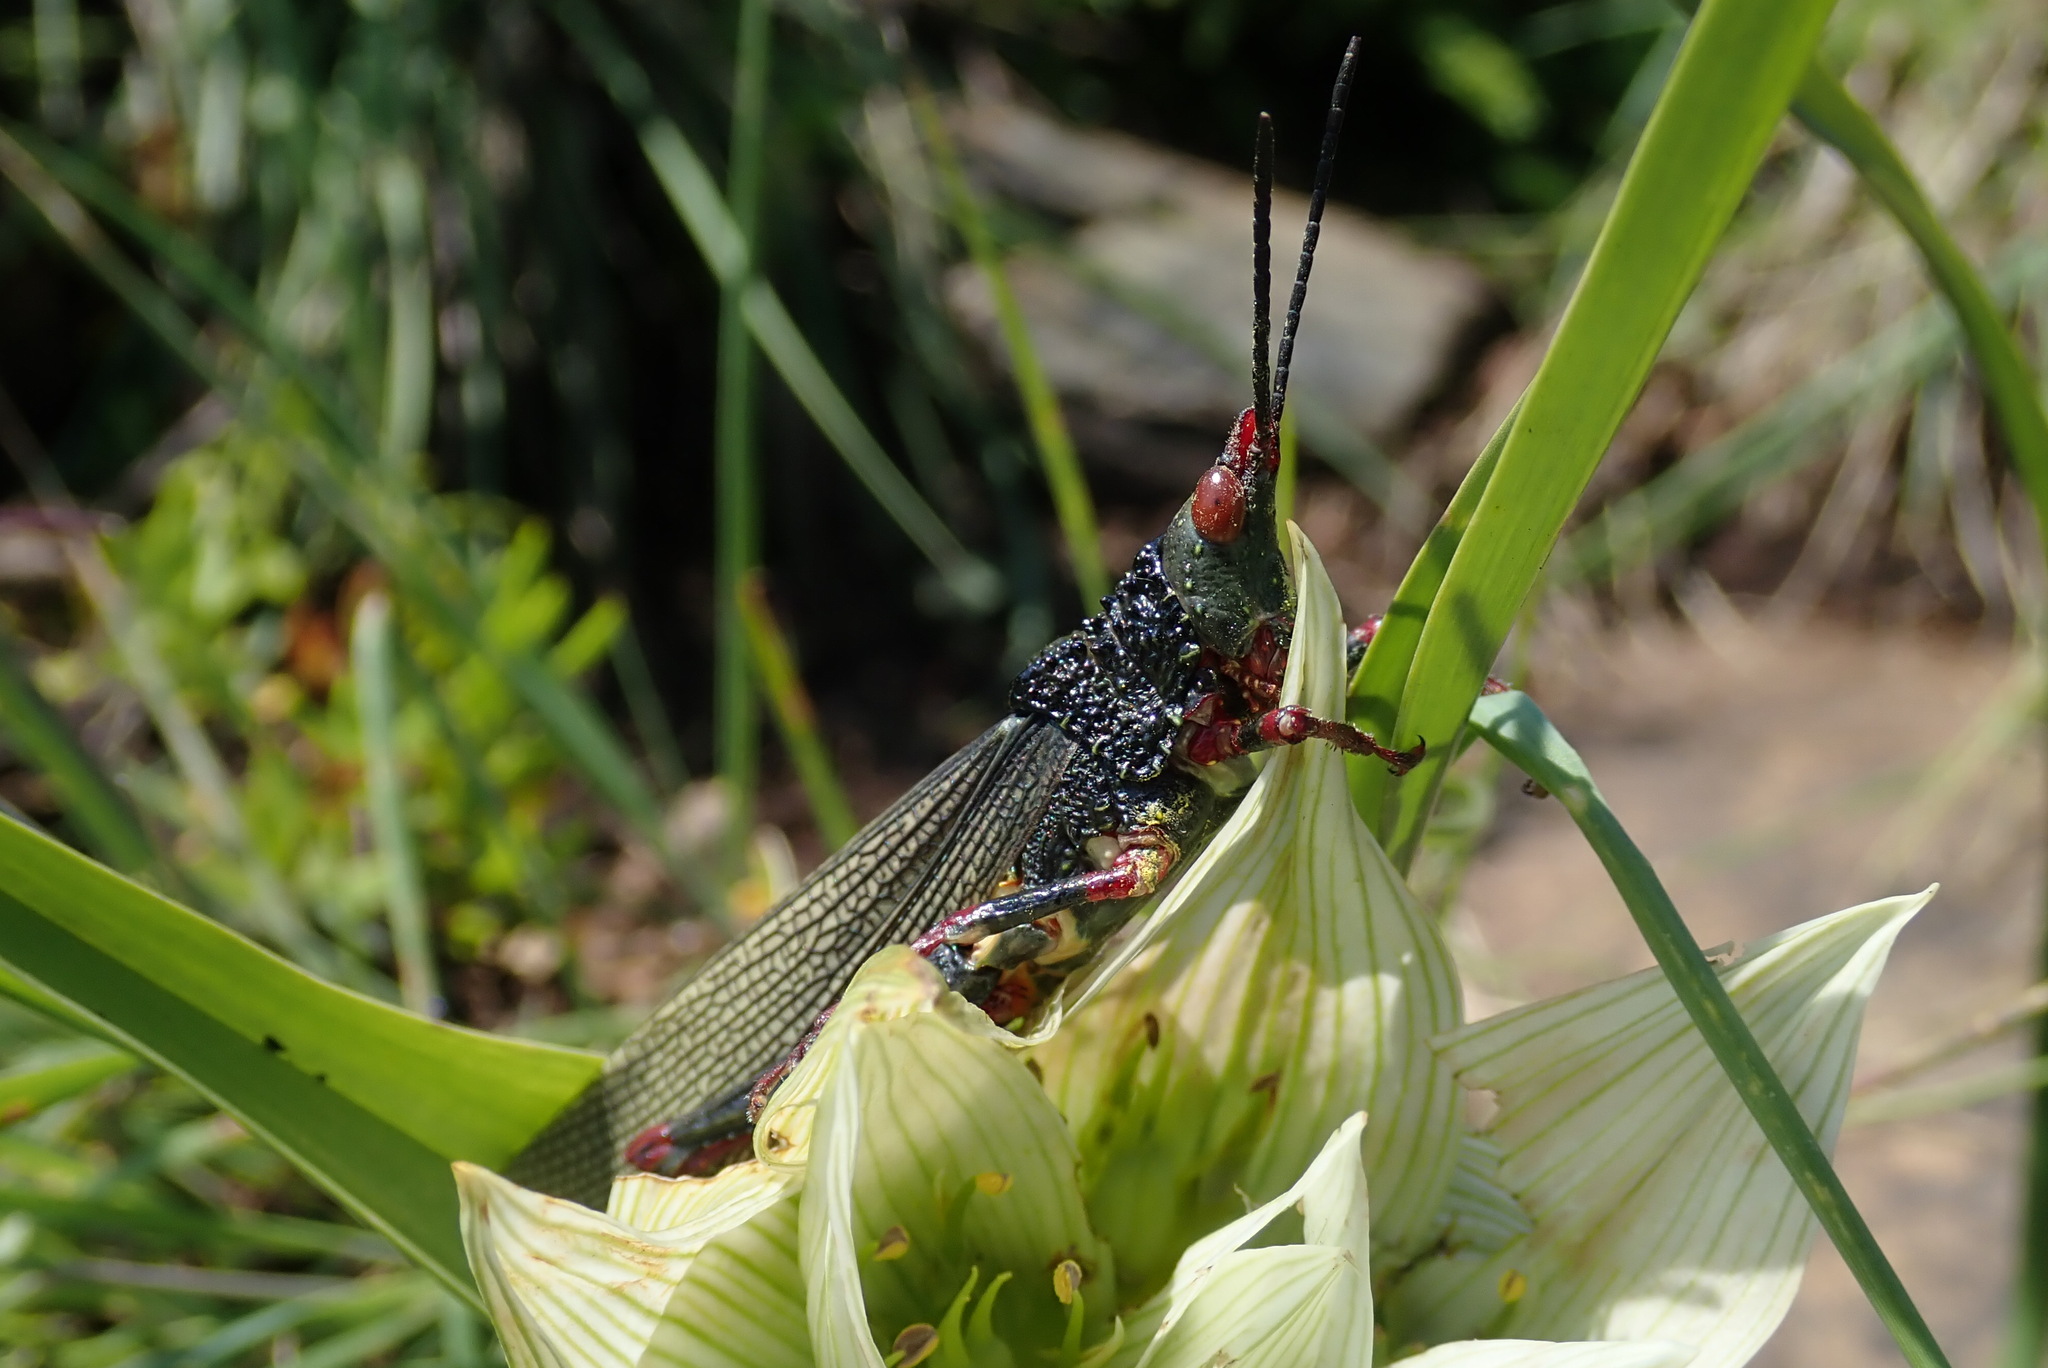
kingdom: Animalia
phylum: Arthropoda
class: Insecta
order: Orthoptera
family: Pyrgomorphidae
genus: Taphronota
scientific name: Taphronota stali
